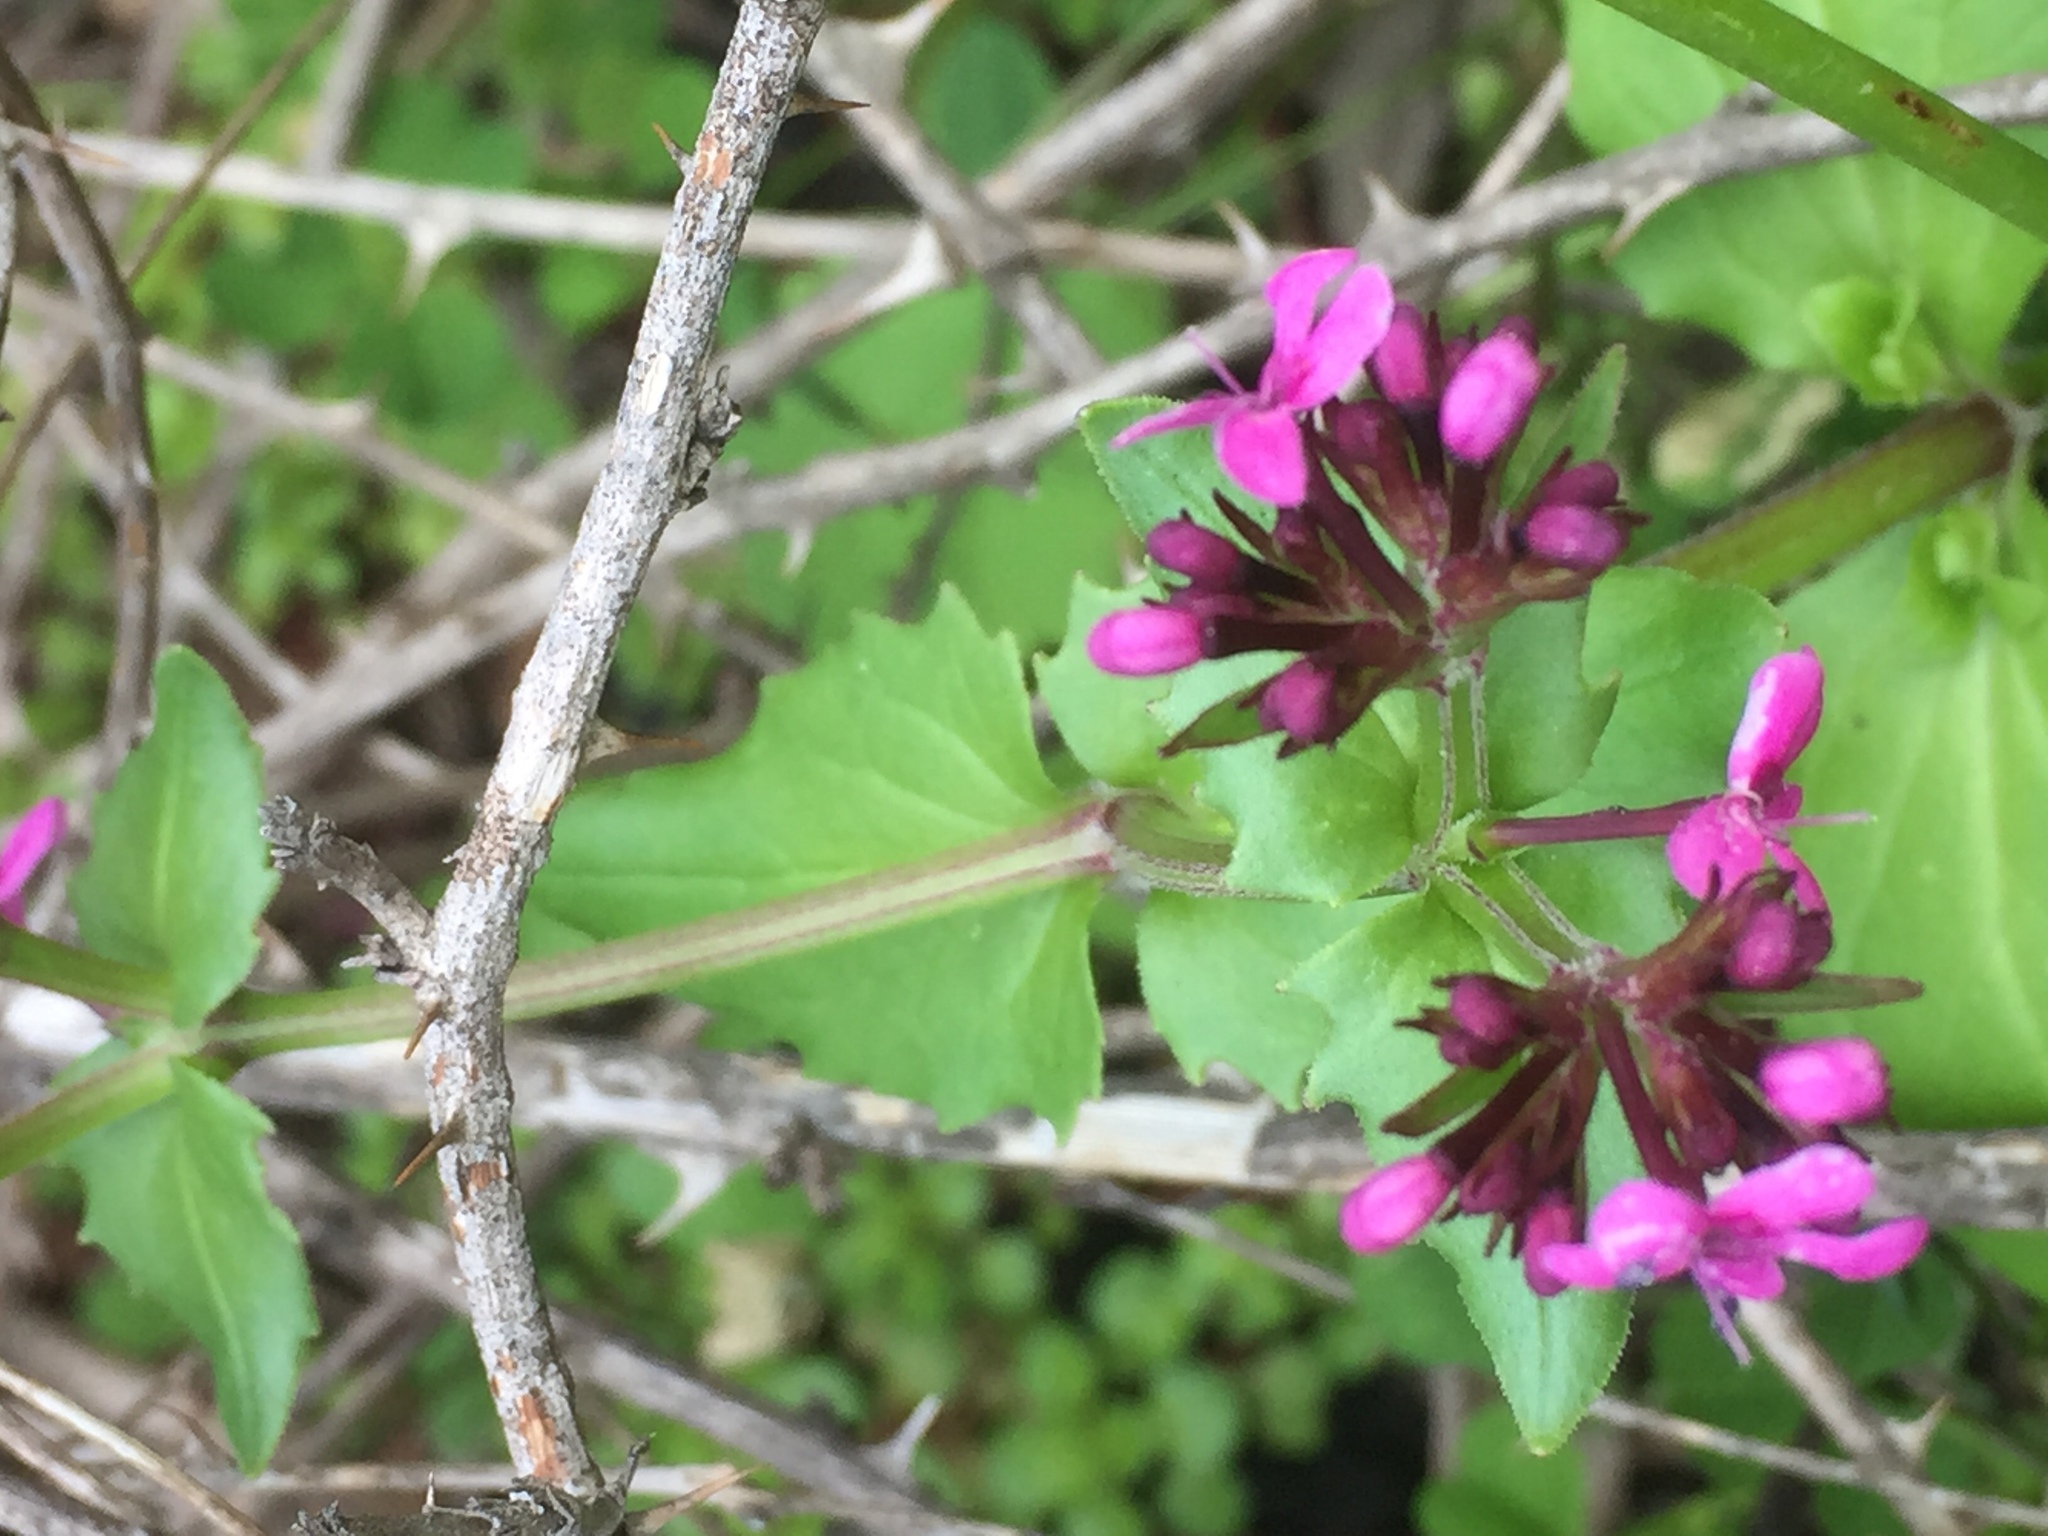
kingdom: Plantae
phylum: Tracheophyta
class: Magnoliopsida
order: Dipsacales
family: Caprifoliaceae
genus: Fedia
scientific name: Fedia graciliflora
